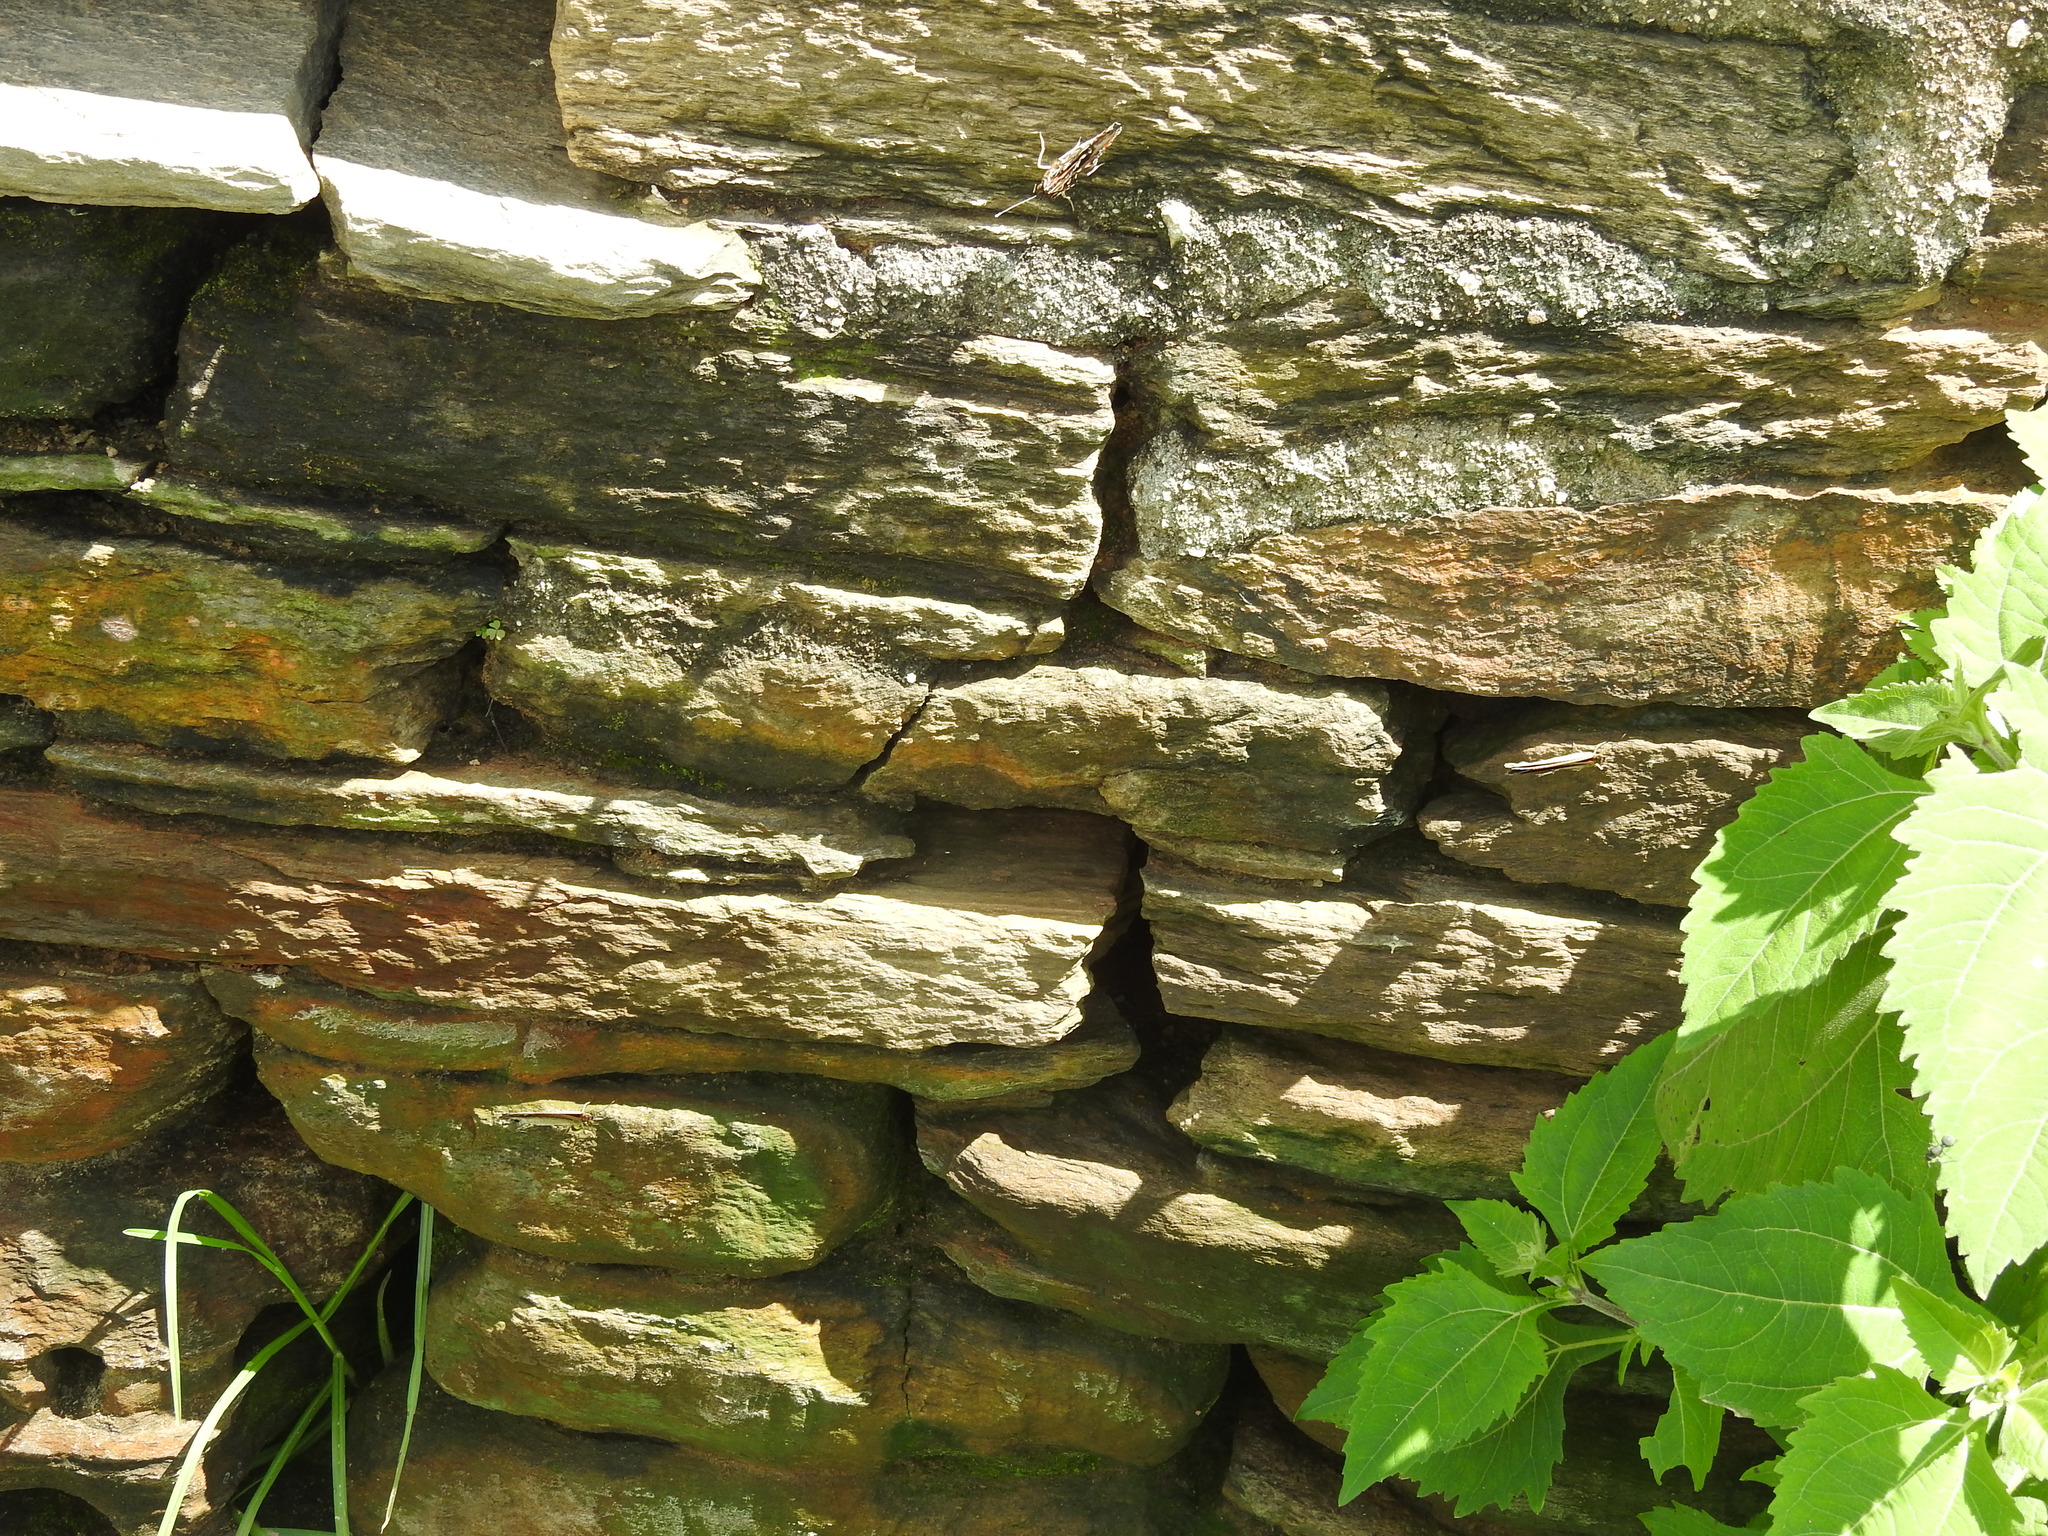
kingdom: Animalia
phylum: Arthropoda
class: Insecta
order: Lepidoptera
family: Nymphalidae
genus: Vanessa
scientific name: Vanessa indica
